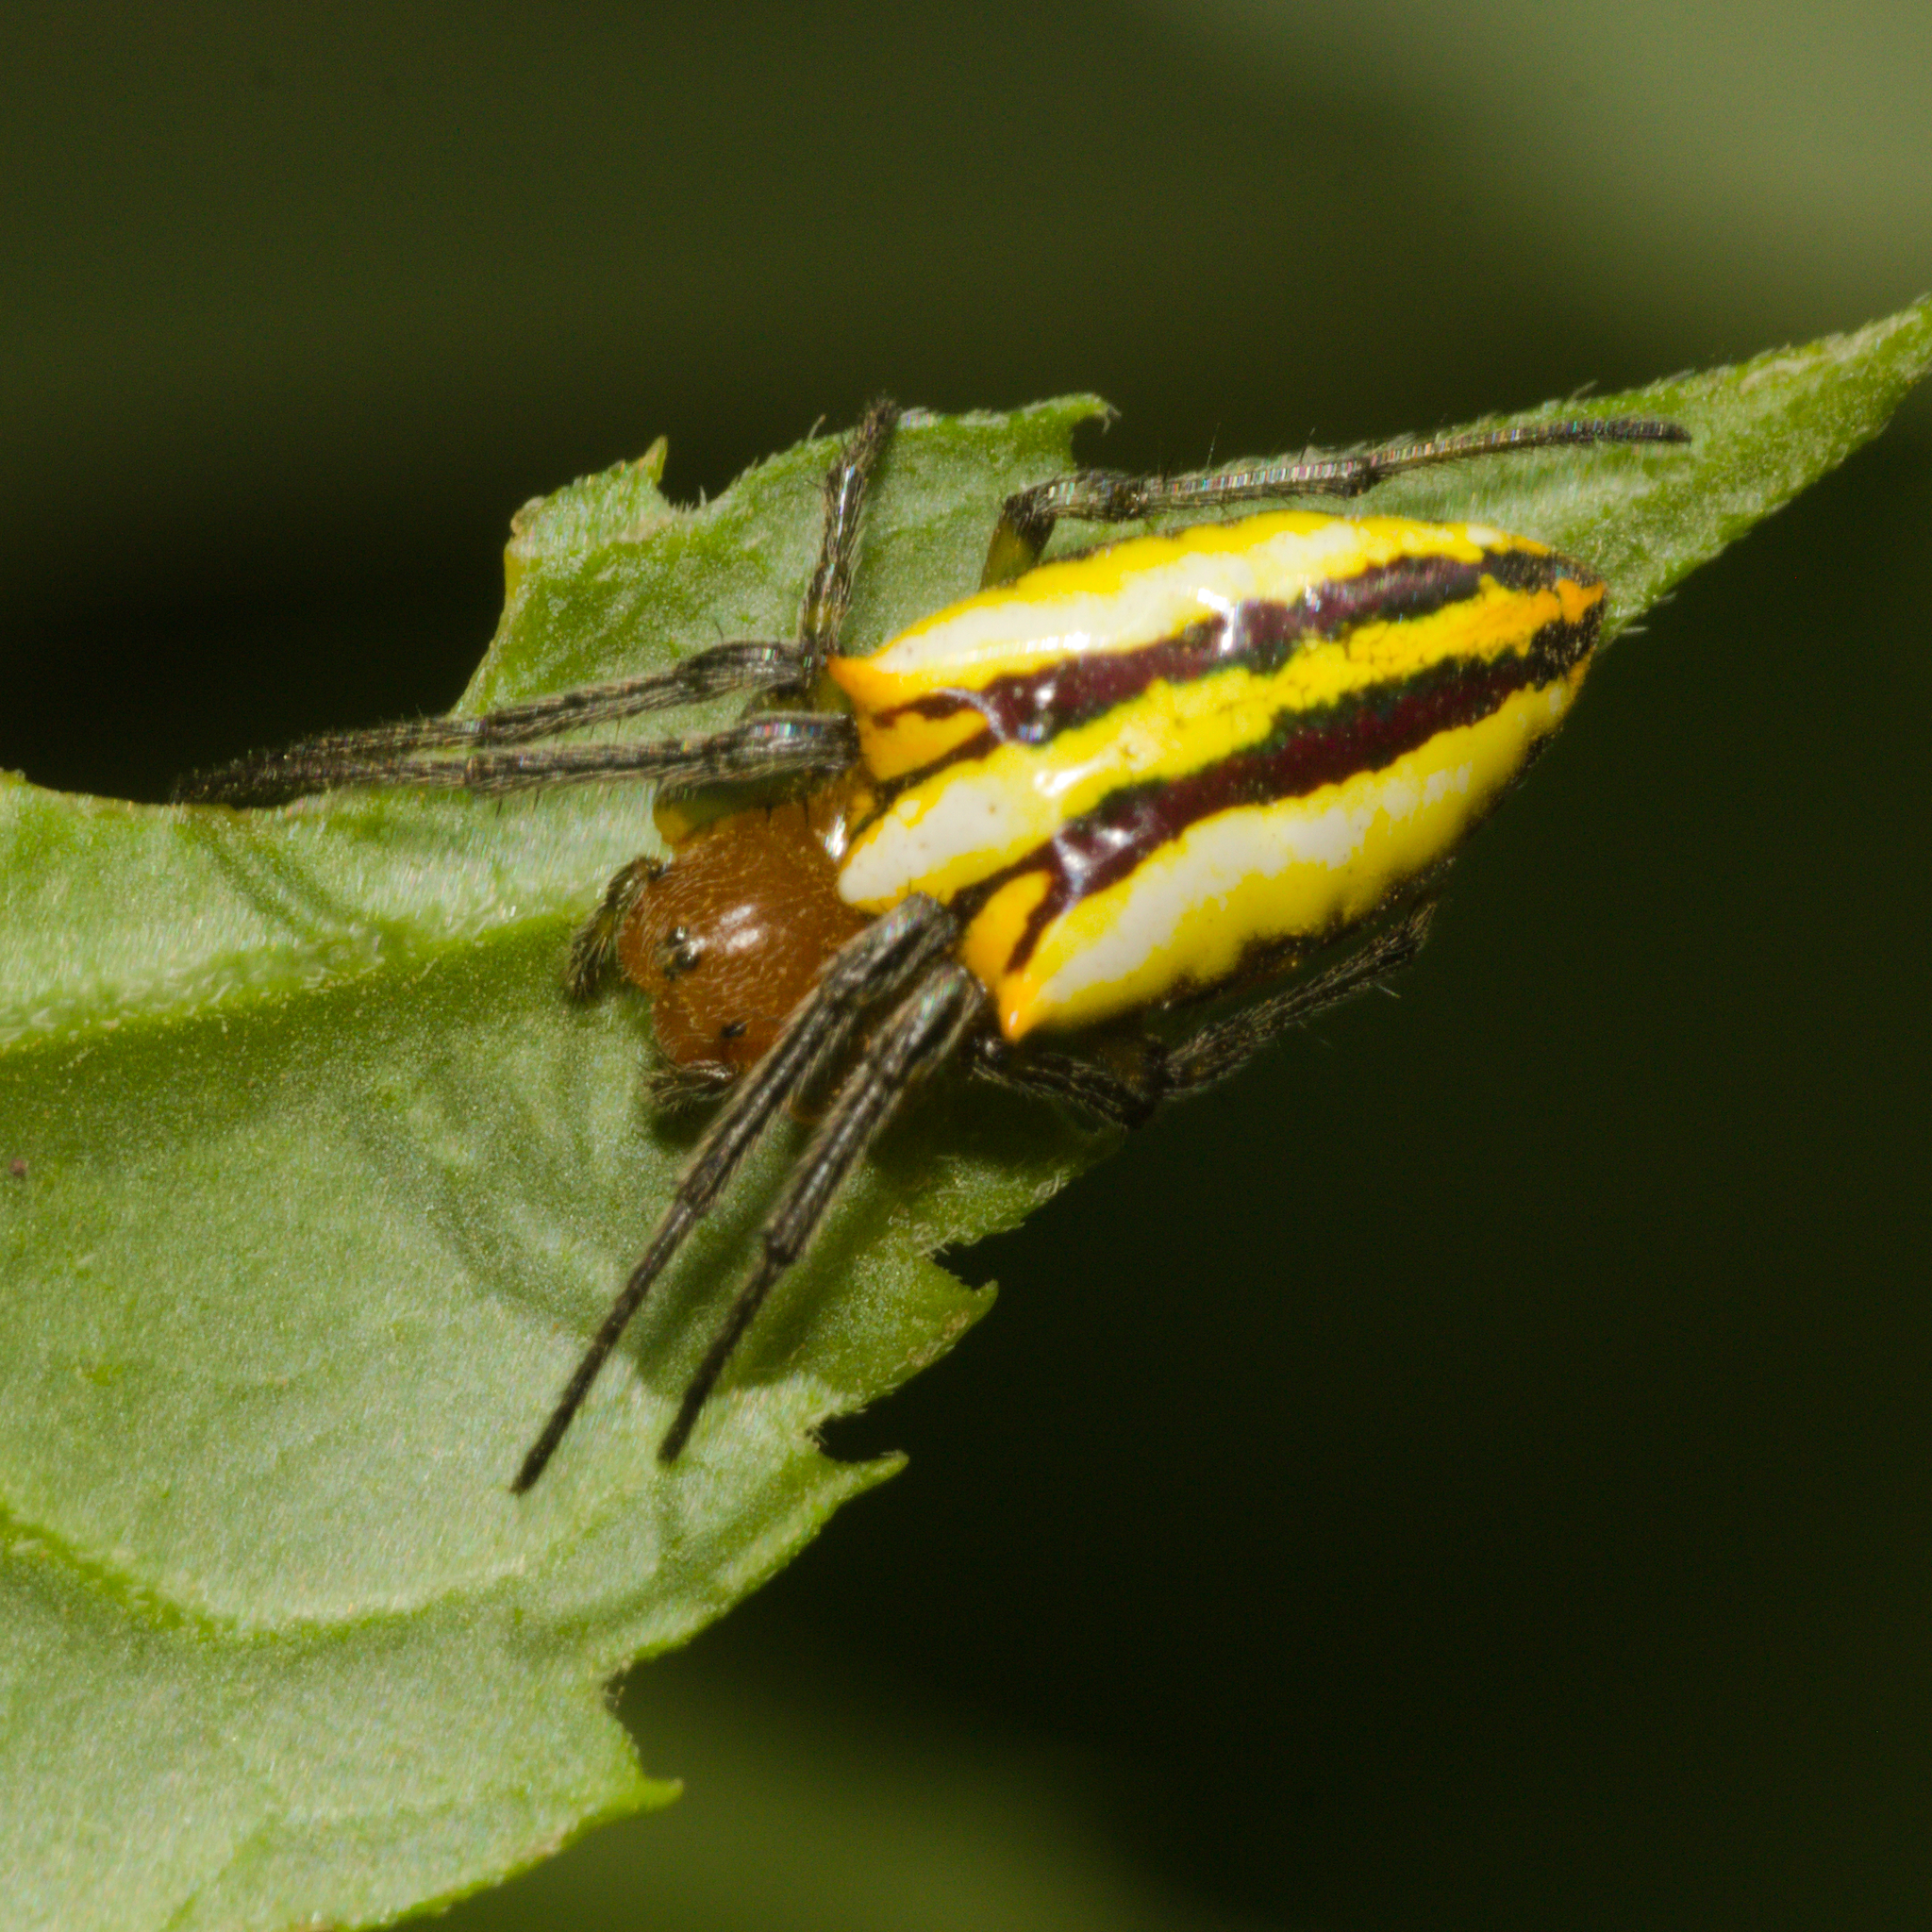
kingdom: Animalia
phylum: Arthropoda
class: Arachnida
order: Araneae
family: Araneidae
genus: Alpaida
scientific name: Alpaida bicornuta
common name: Orb weavers
